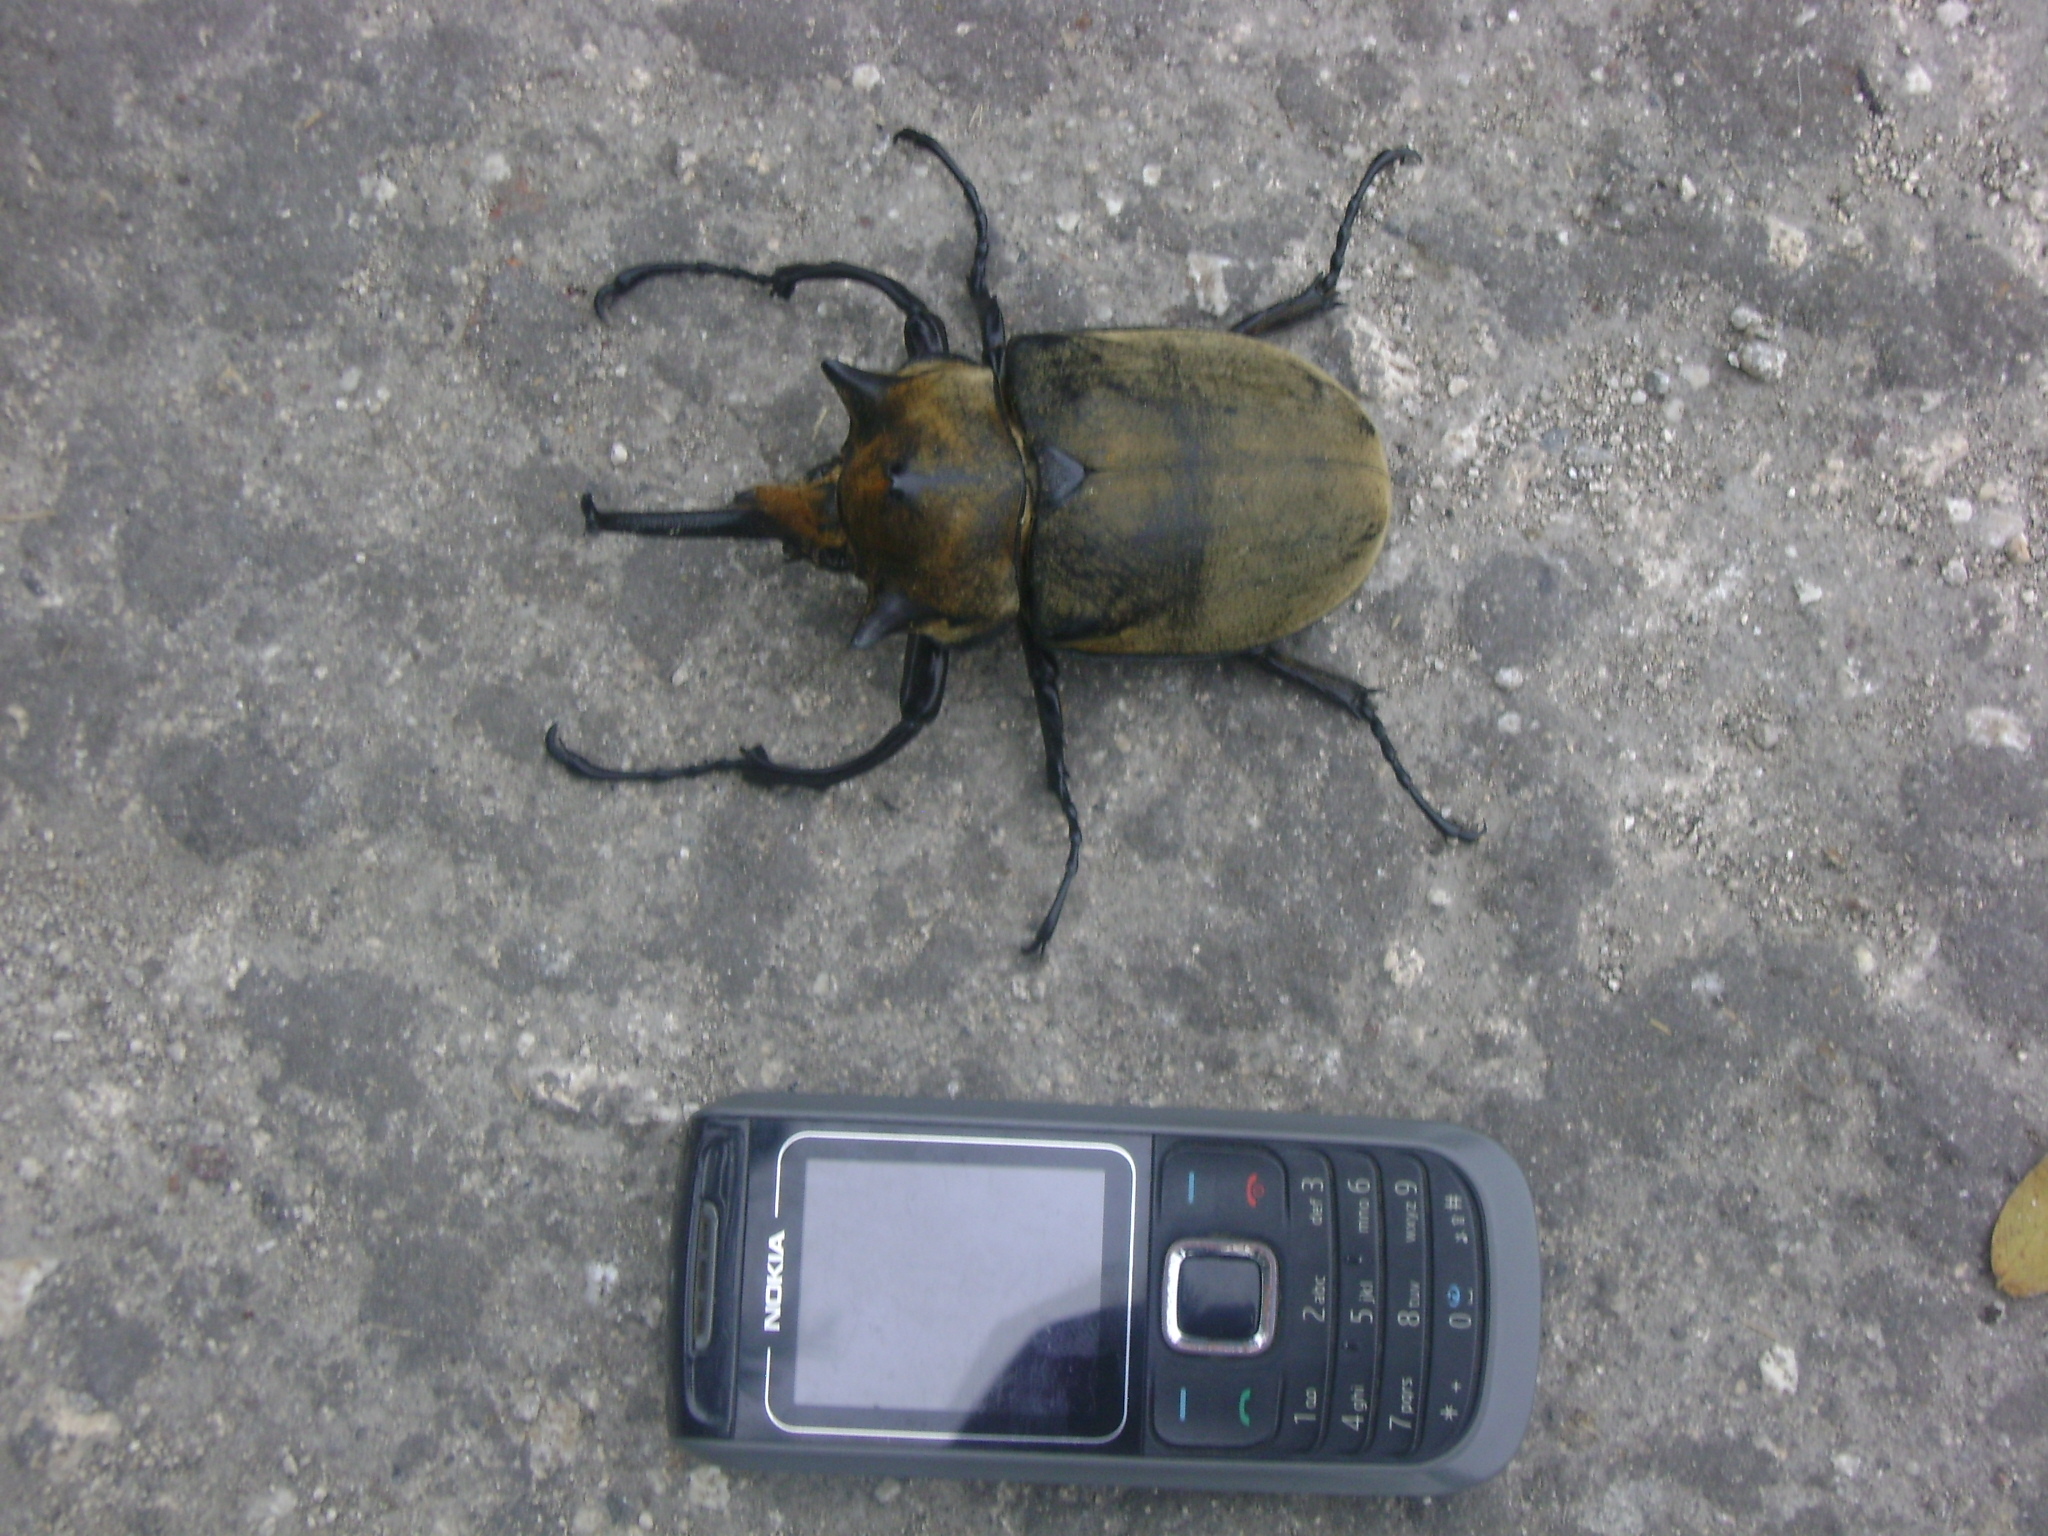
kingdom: Animalia
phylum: Arthropoda
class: Insecta
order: Coleoptera
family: Scarabaeidae
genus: Megasoma
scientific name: Megasoma elephas
